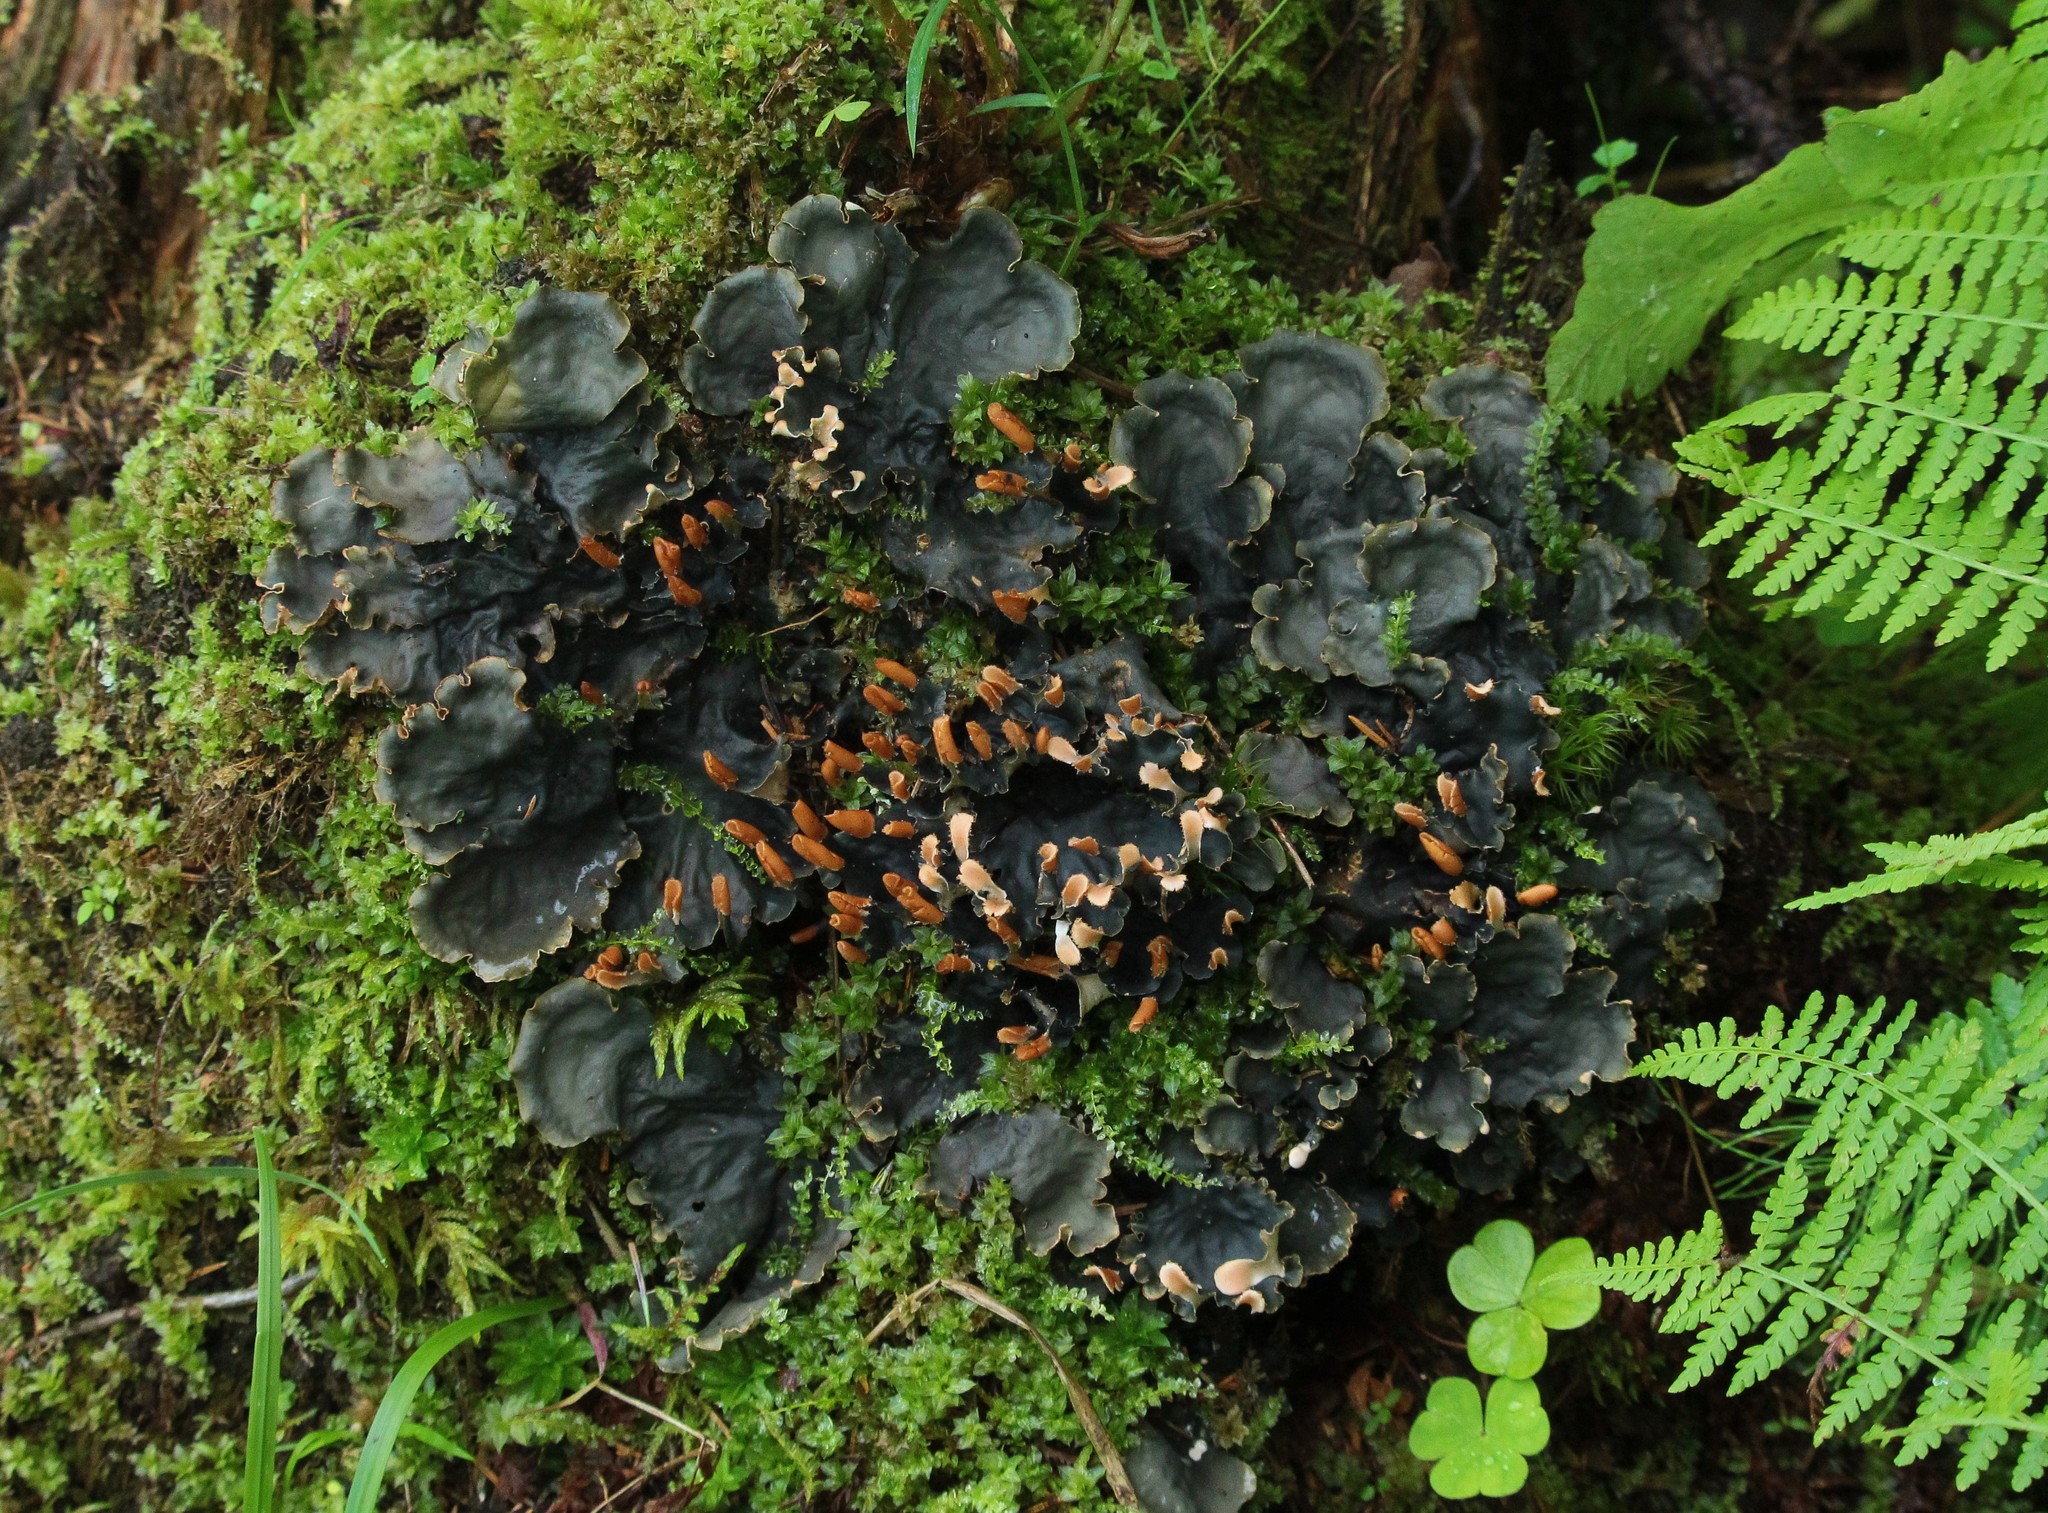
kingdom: Fungi
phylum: Ascomycota
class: Lecanoromycetes
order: Peltigerales
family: Peltigeraceae
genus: Peltigera
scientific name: Peltigera neopolydactyla
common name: Carpet pelt
